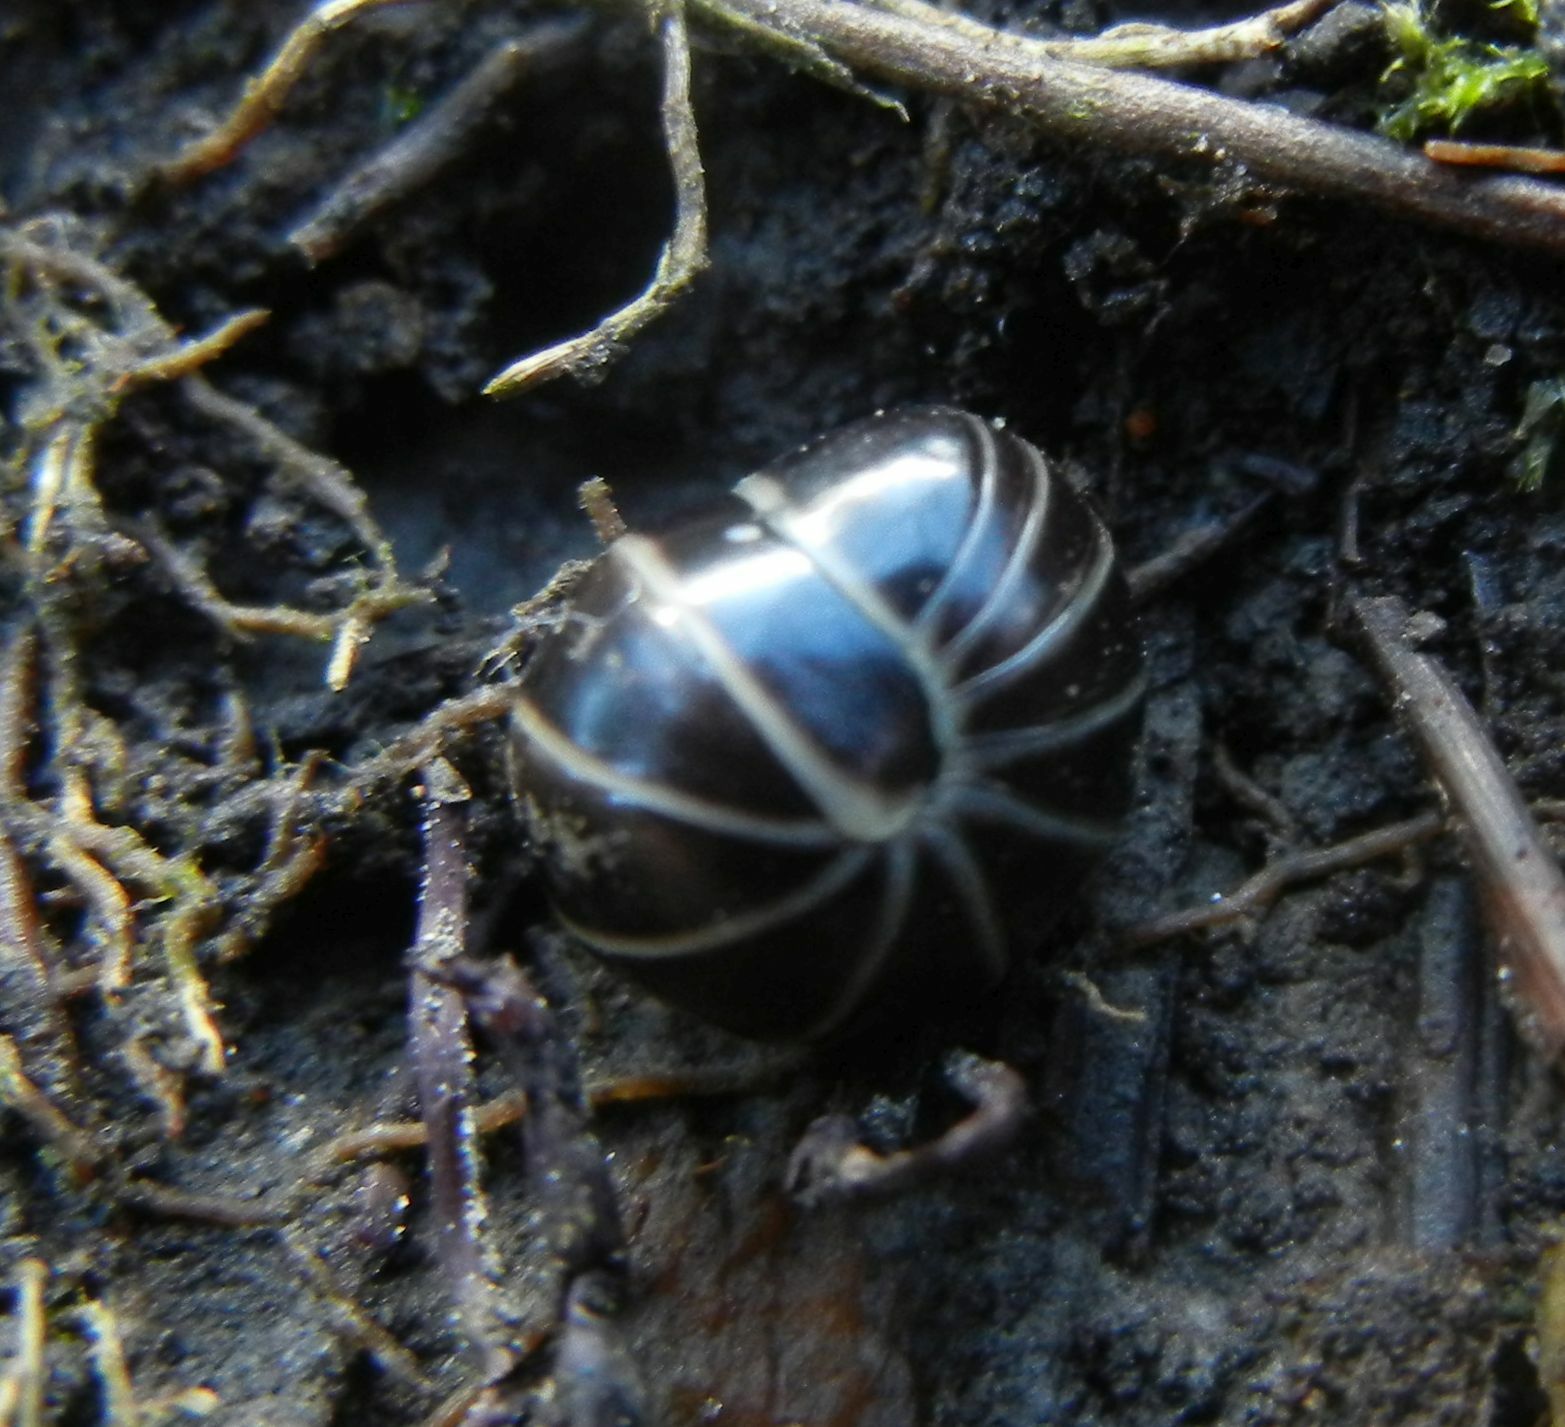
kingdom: Animalia
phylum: Arthropoda
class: Diplopoda
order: Glomerida
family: Glomeridae
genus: Glomeris
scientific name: Glomeris marginata
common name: Bordered pill millipede
